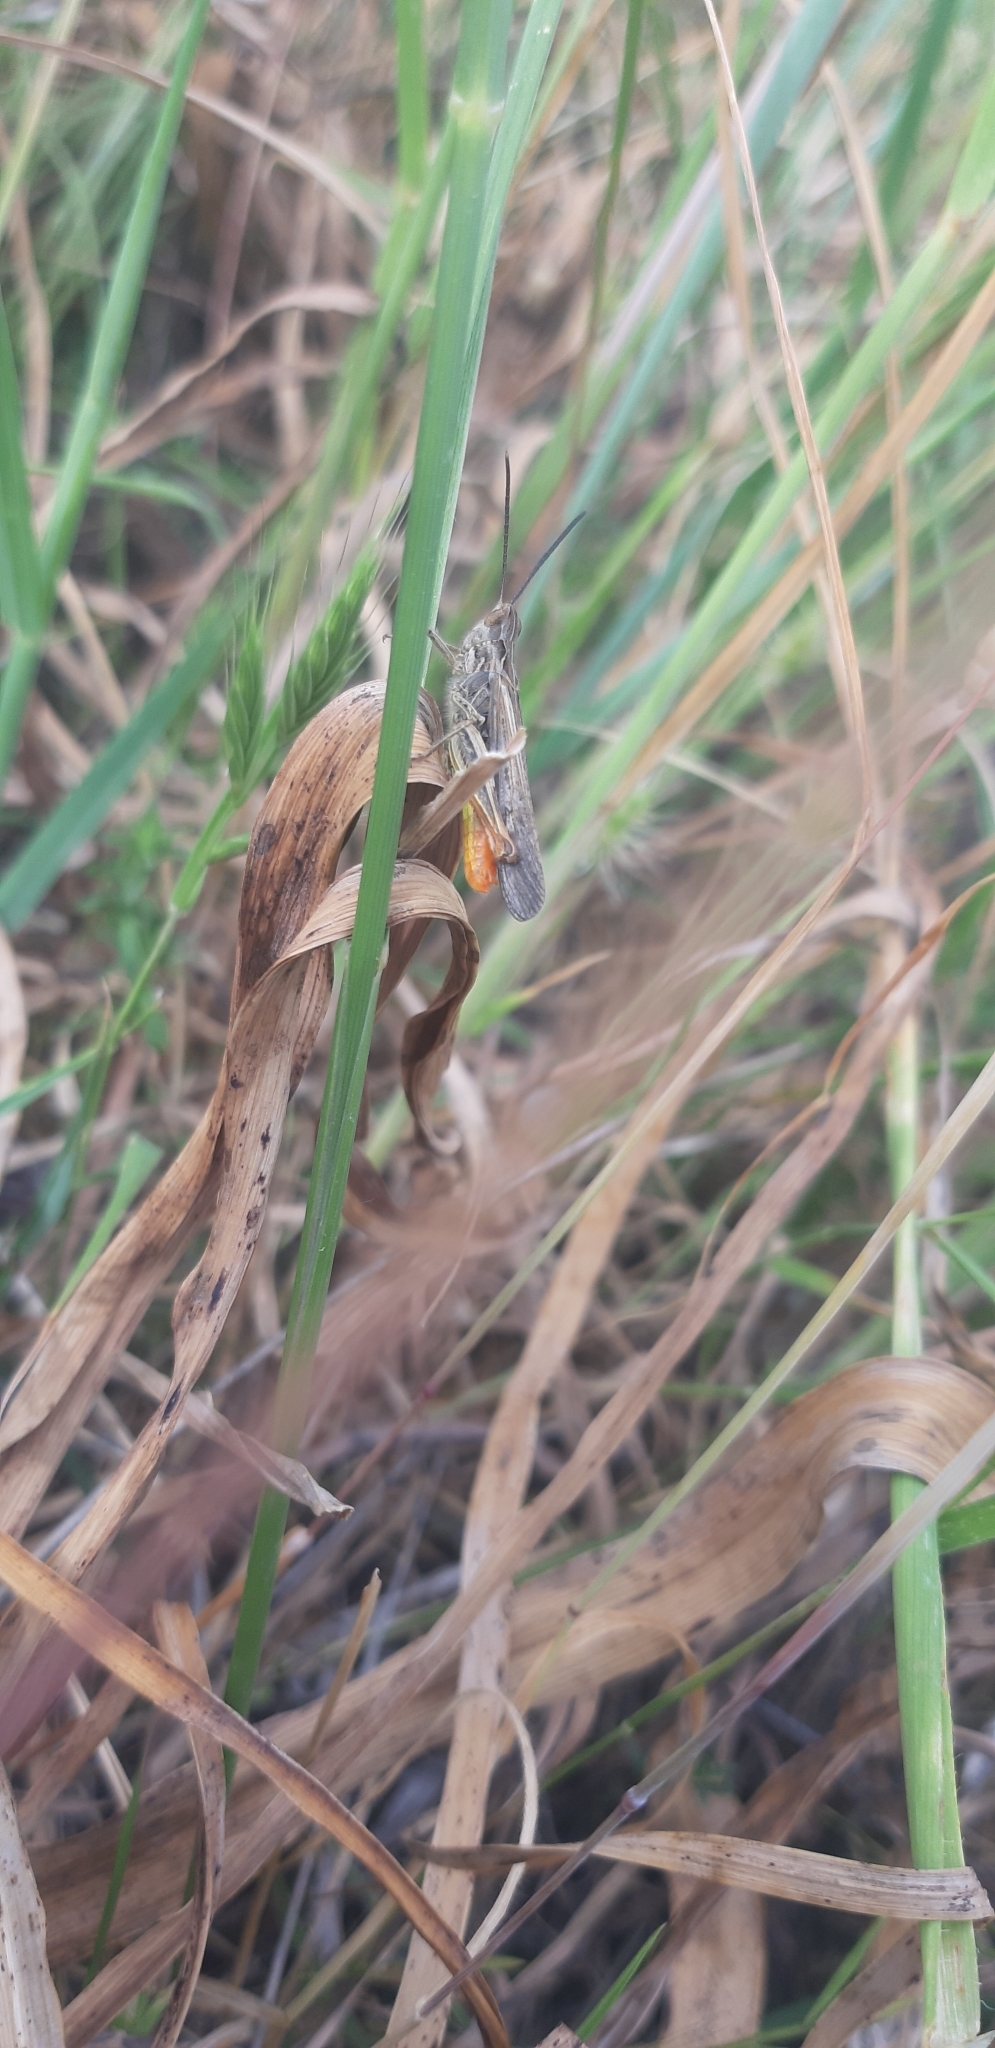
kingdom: Animalia
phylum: Arthropoda
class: Insecta
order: Orthoptera
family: Acrididae
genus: Chorthippus
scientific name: Chorthippus brunneus
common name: Field grasshopper
